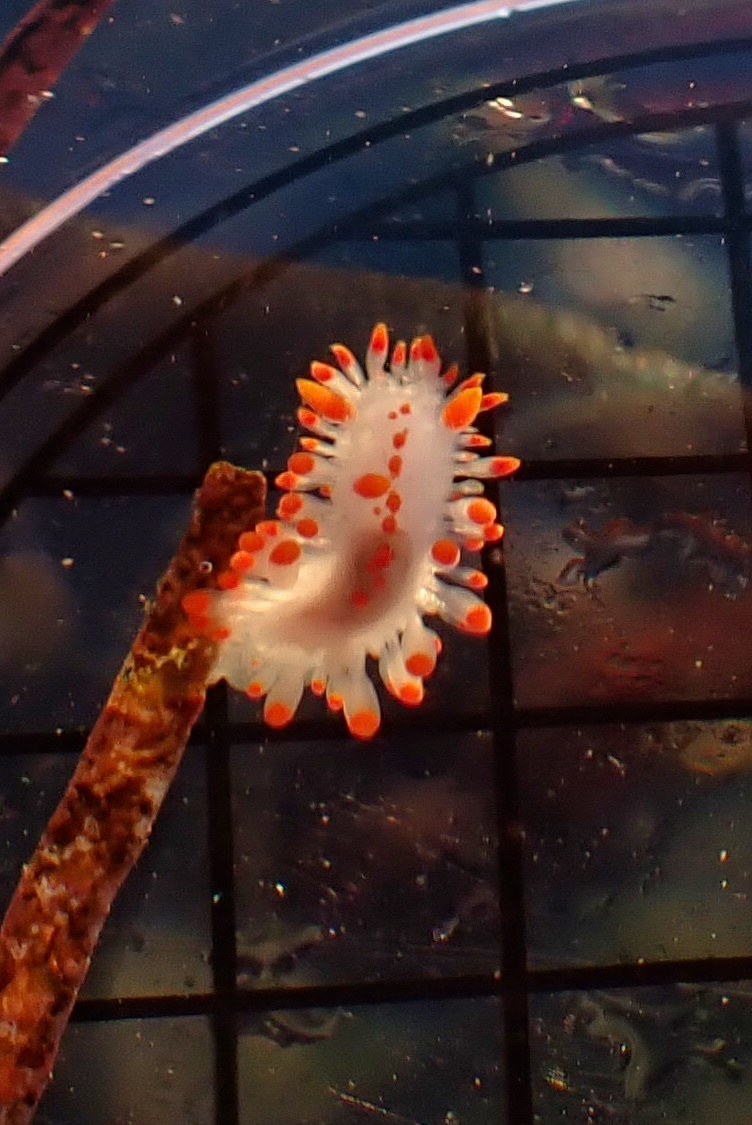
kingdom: Animalia
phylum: Mollusca
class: Gastropoda
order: Nudibranchia
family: Polyceridae
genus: Limacia
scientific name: Limacia mcdonaldi
